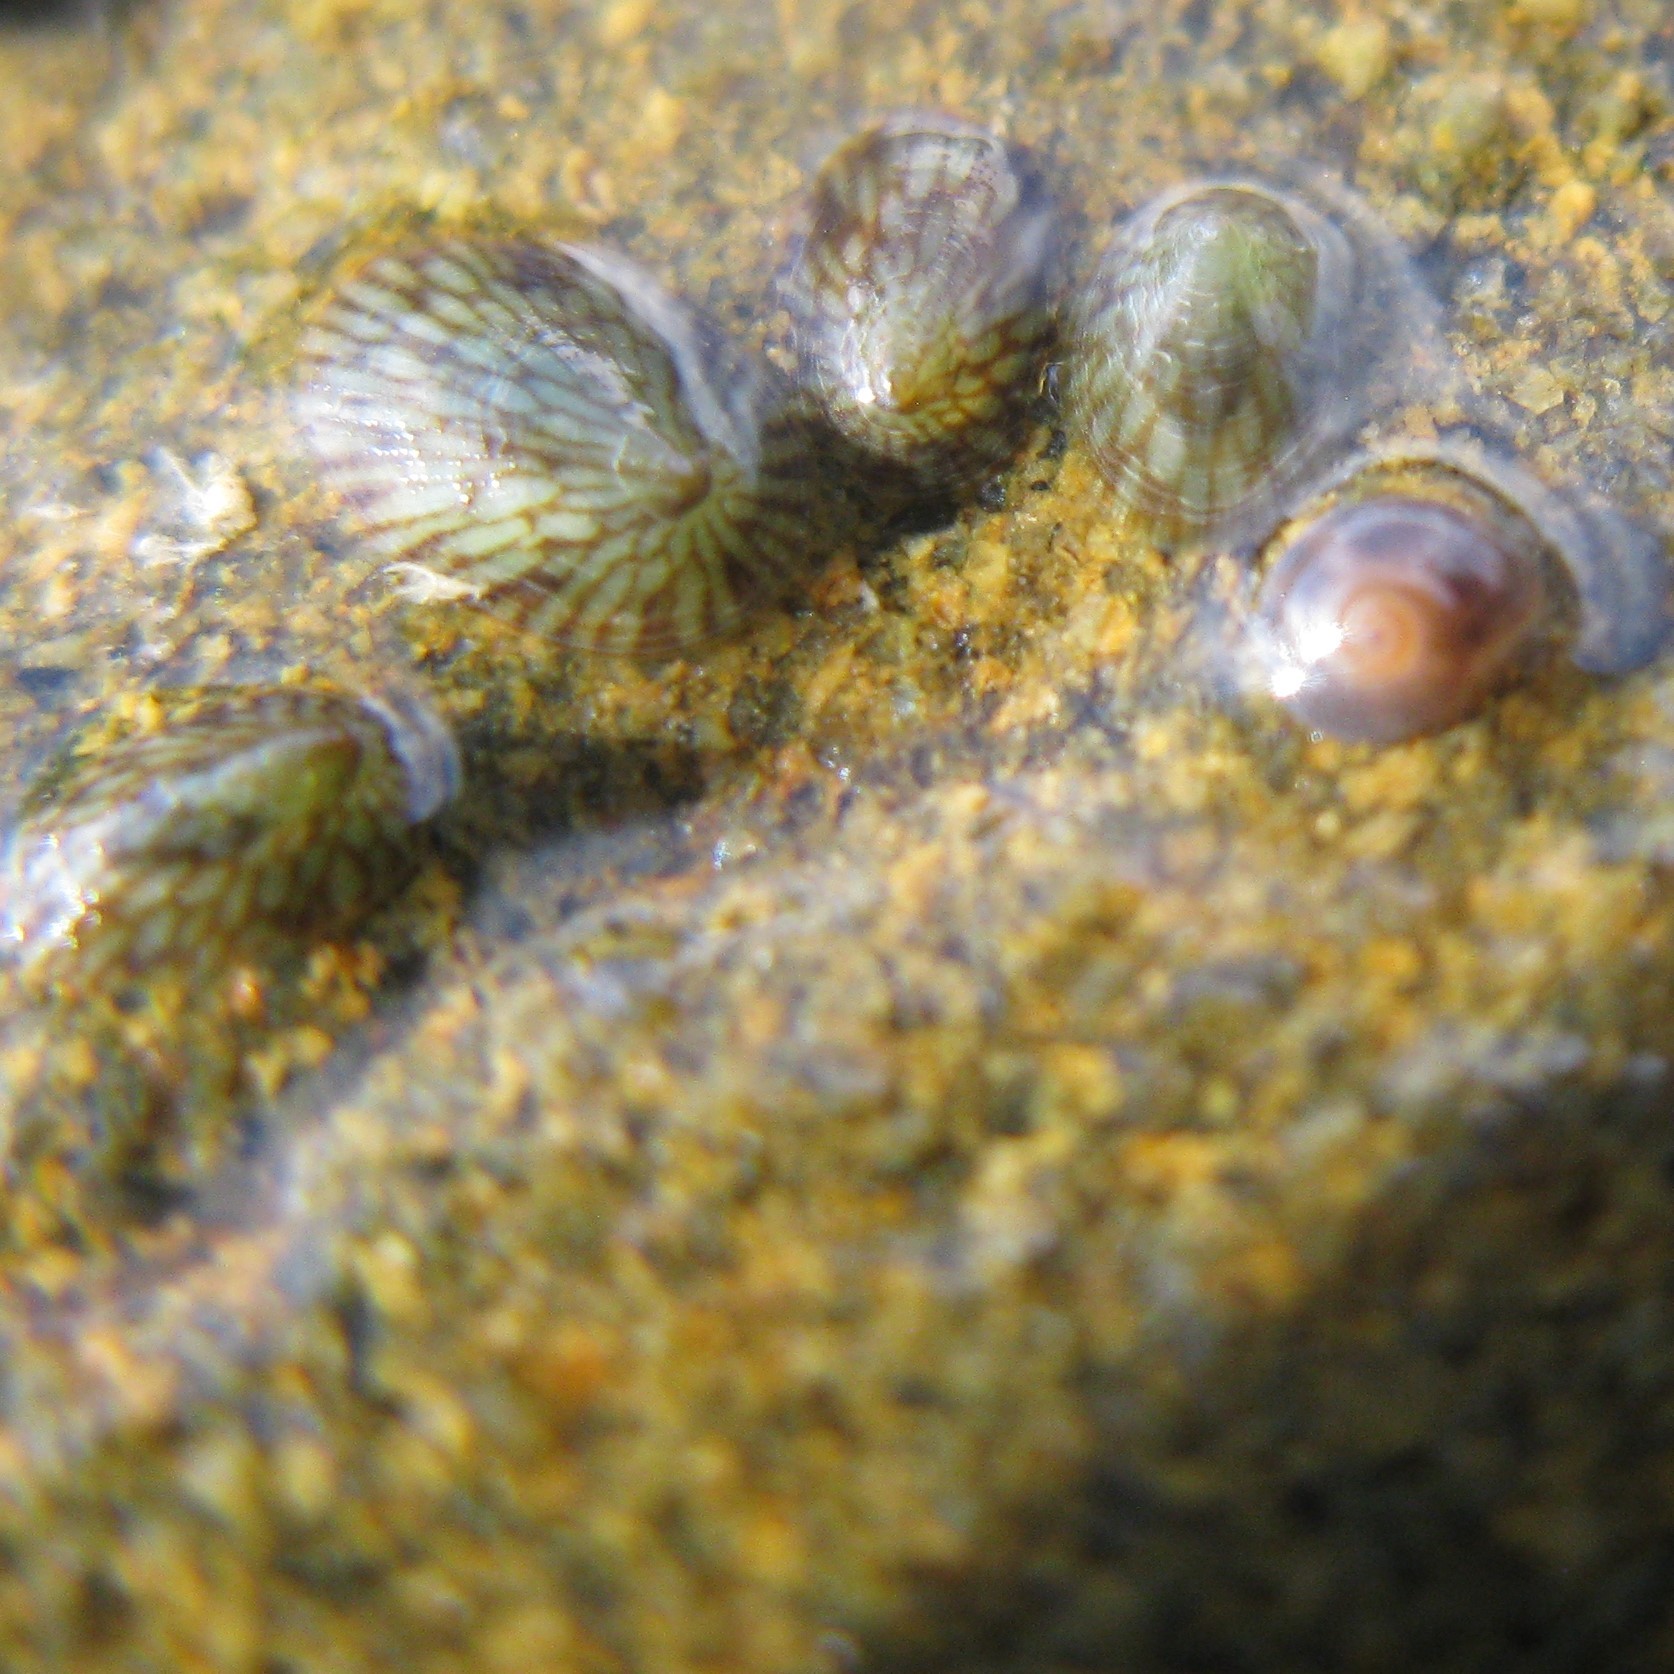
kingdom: Animalia
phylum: Mollusca
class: Gastropoda
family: Lottiidae
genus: Notoacmea
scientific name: Notoacmea elongata
